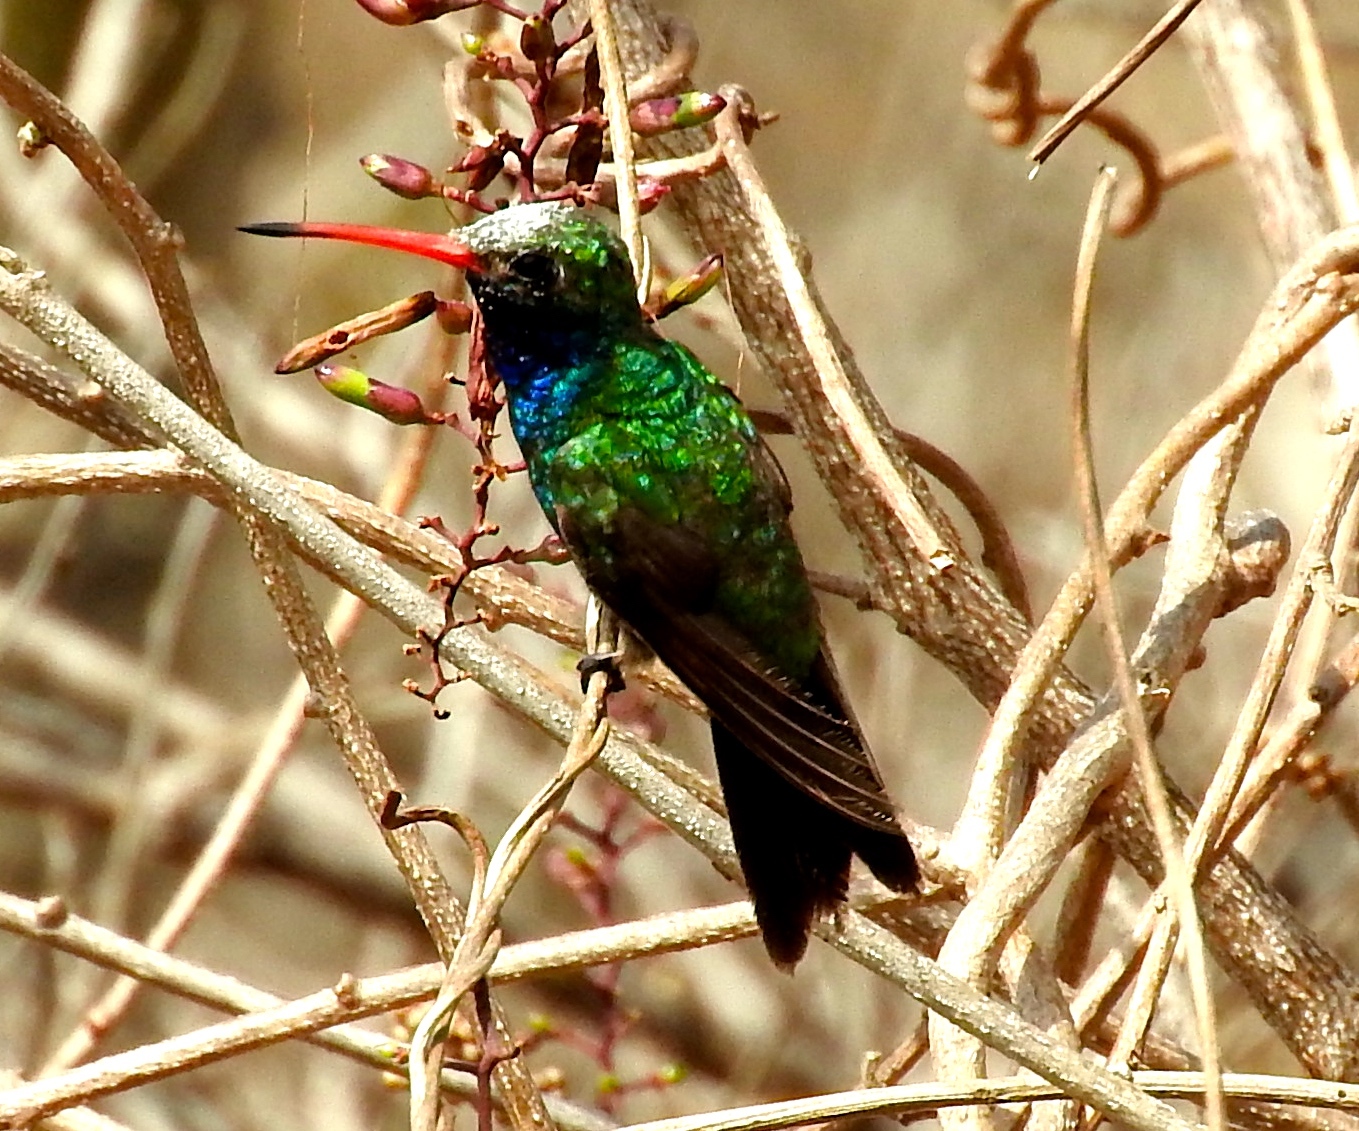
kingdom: Animalia
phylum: Chordata
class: Aves
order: Apodiformes
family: Trochilidae
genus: Cynanthus
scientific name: Cynanthus latirostris
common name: Broad-billed hummingbird
